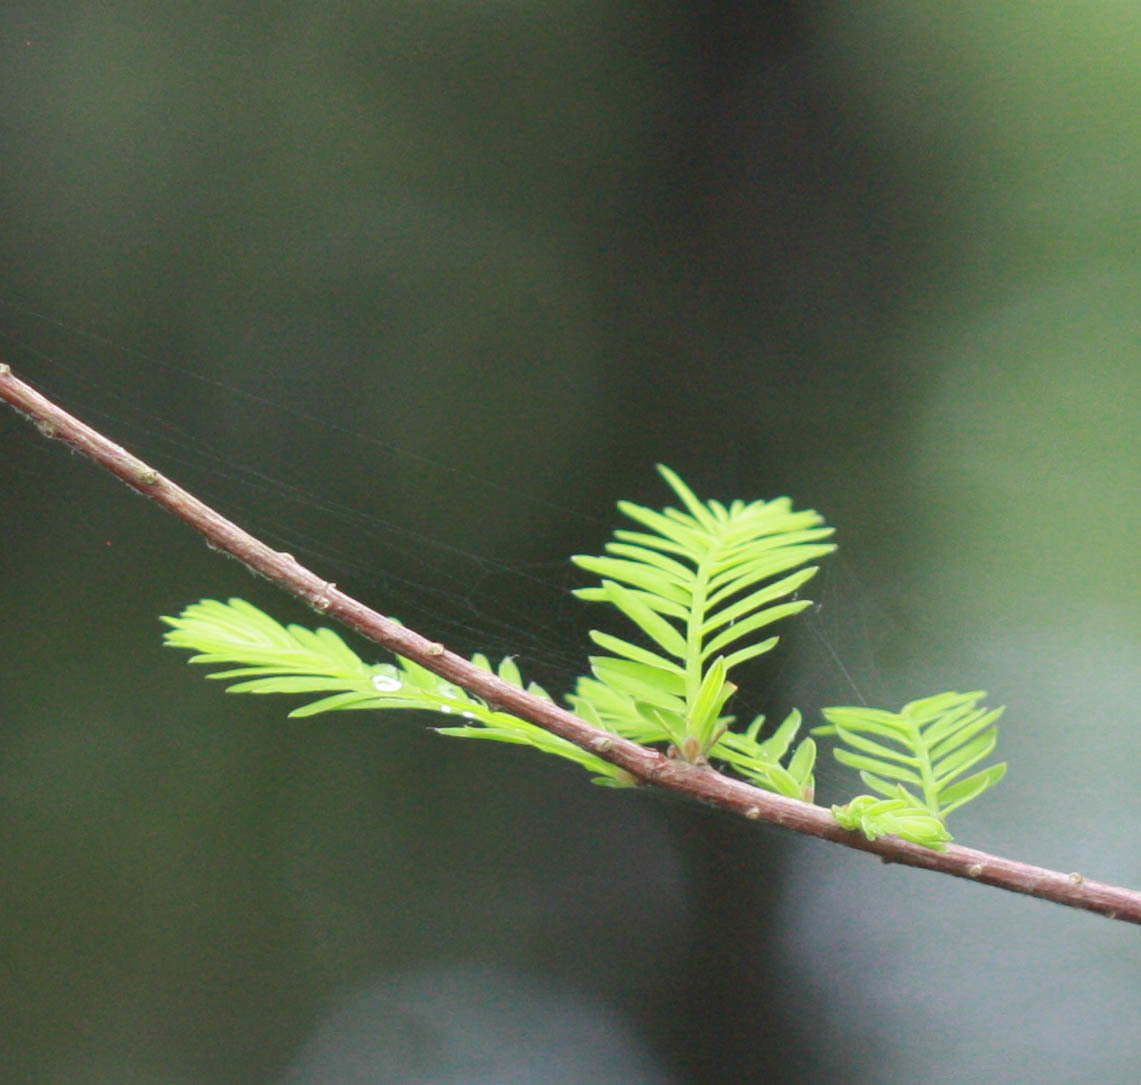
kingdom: Plantae
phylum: Tracheophyta
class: Pinopsida
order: Pinales
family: Cupressaceae
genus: Taxodium
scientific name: Taxodium distichum
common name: Bald cypress
